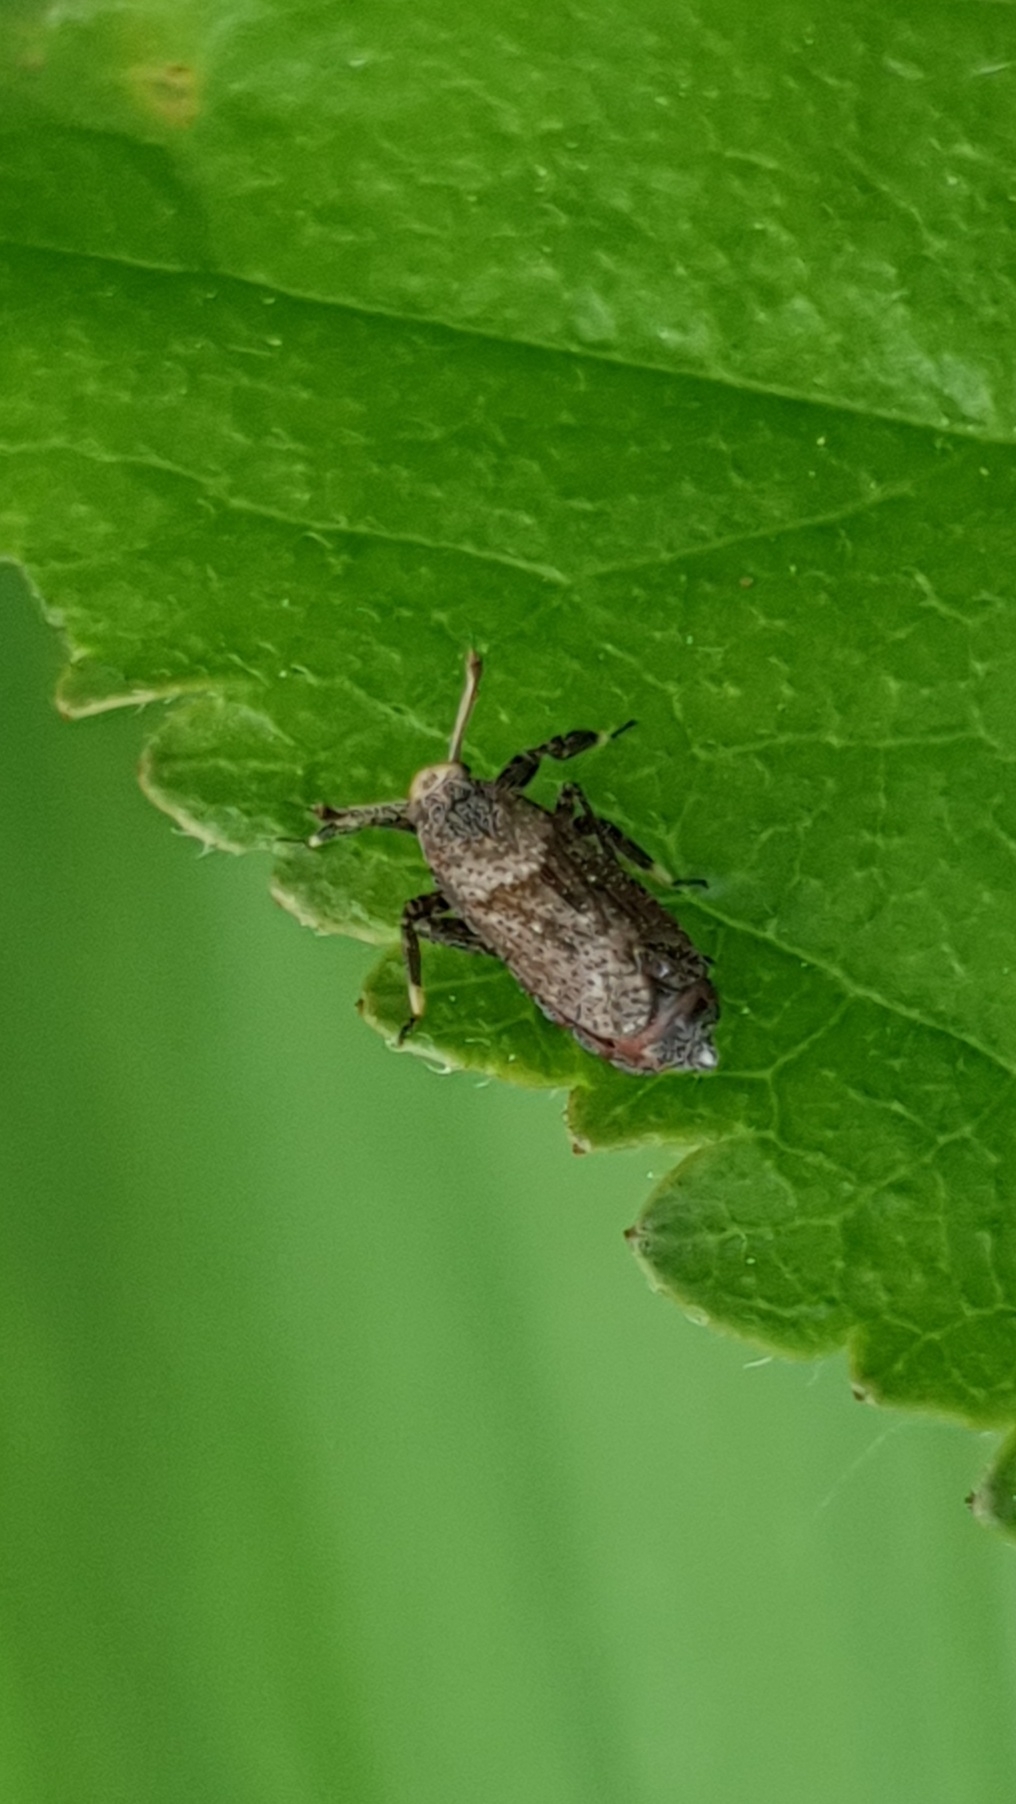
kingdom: Animalia
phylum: Arthropoda
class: Insecta
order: Hemiptera
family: Delphacidae
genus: Asiraca
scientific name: Asiraca clavicornis
